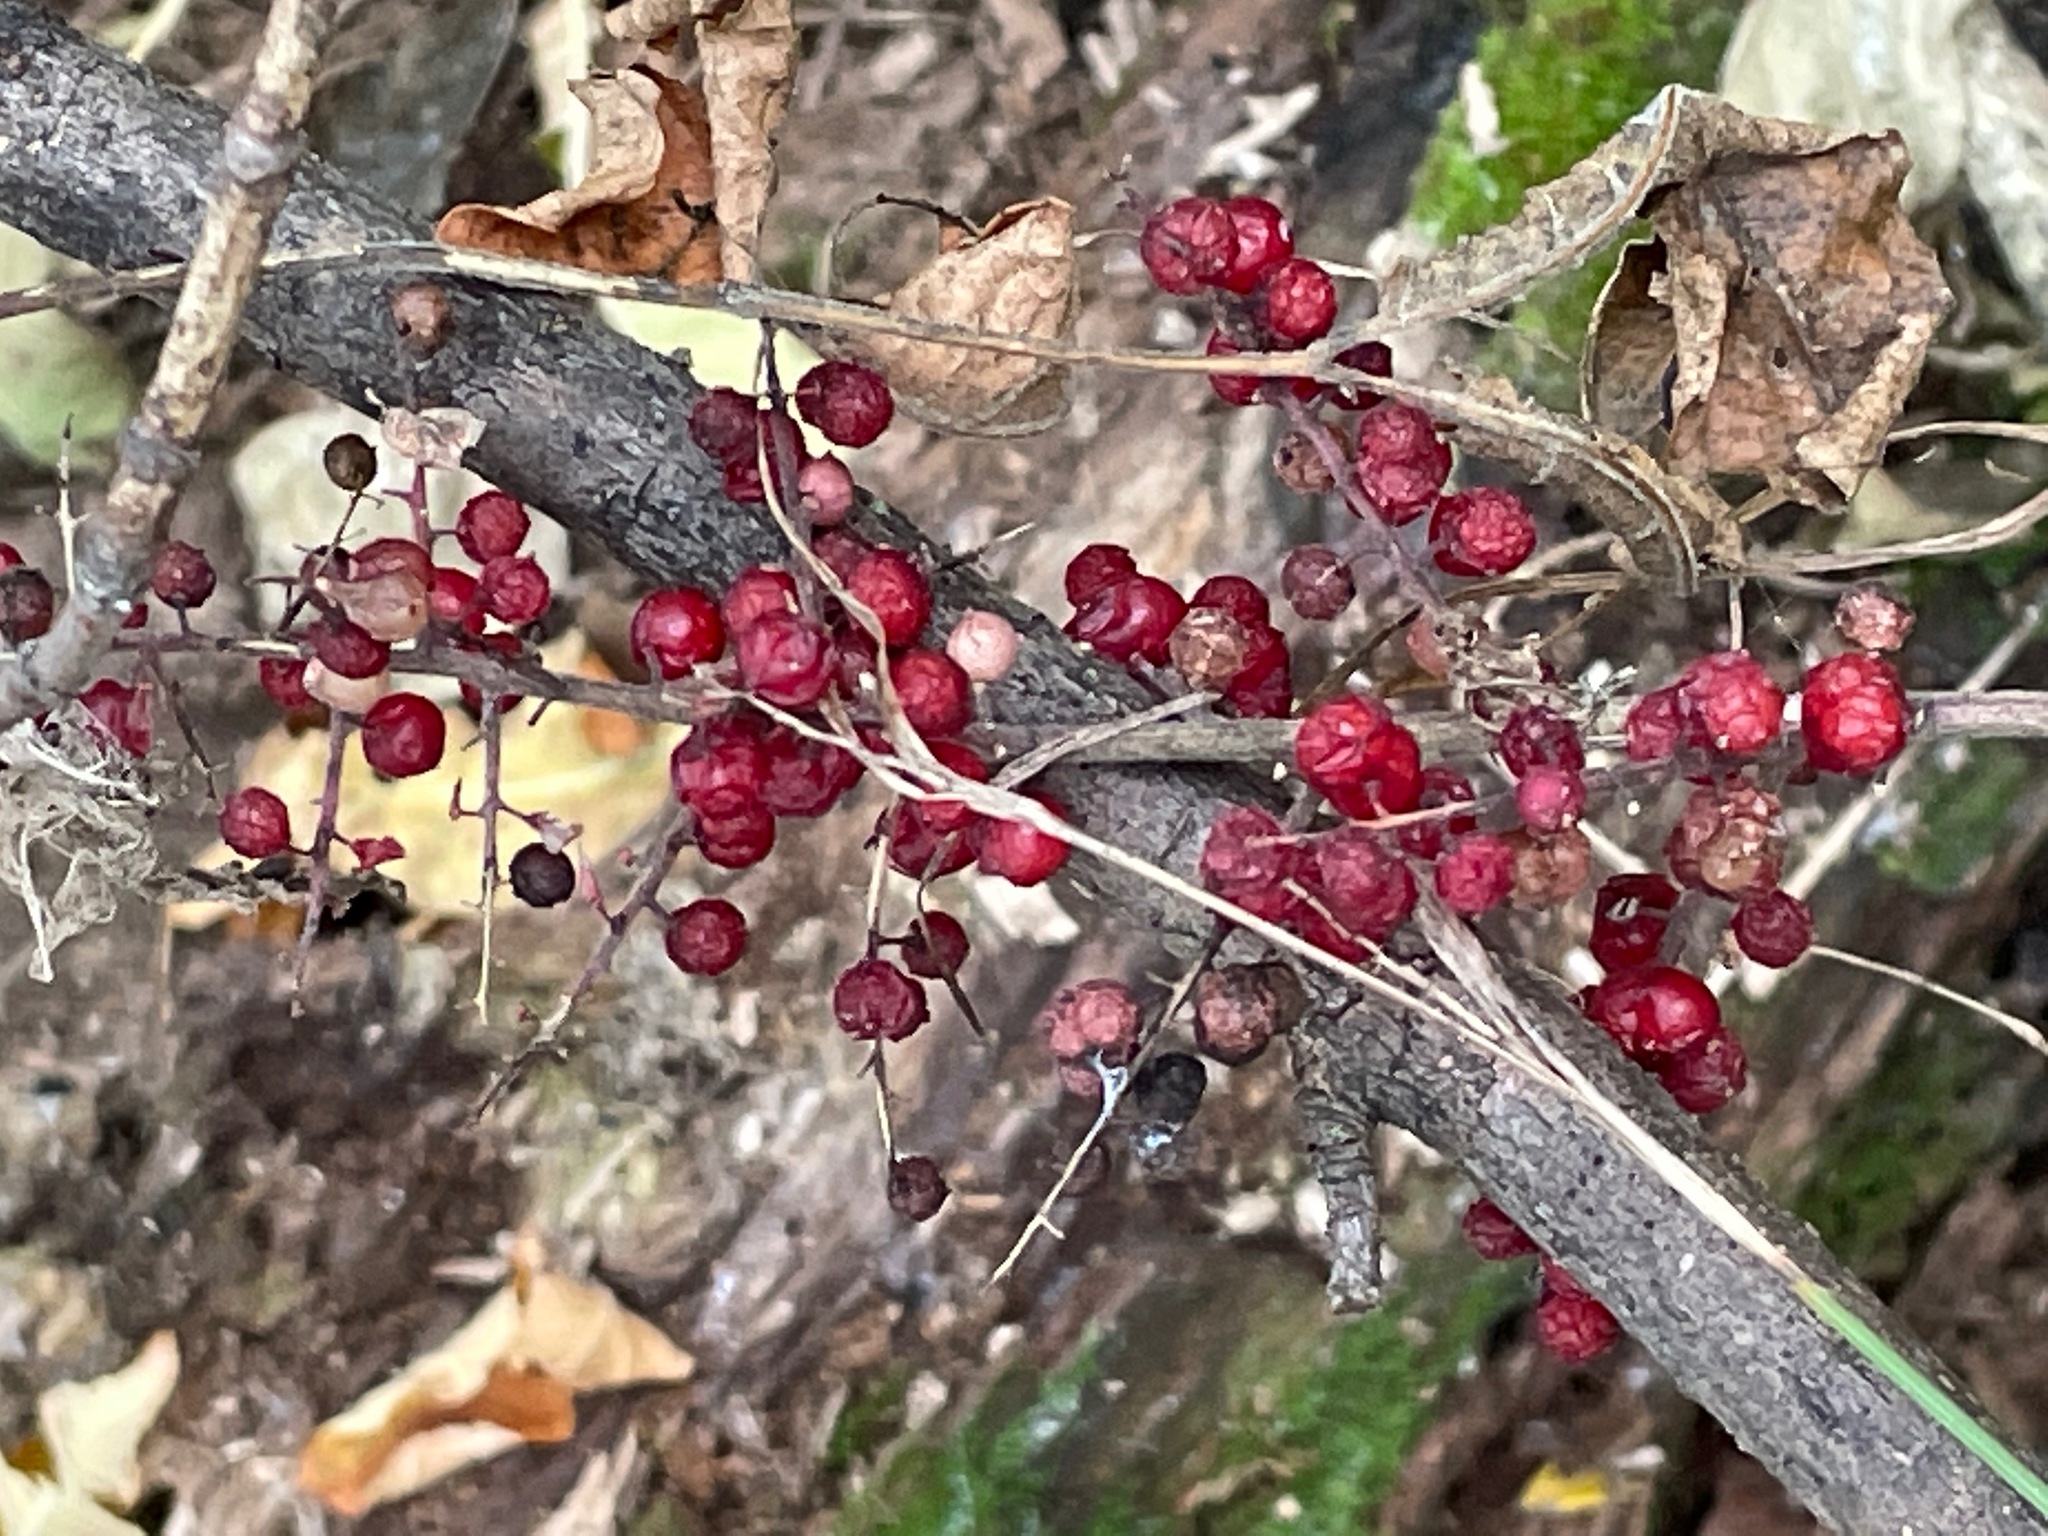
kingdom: Plantae
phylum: Tracheophyta
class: Liliopsida
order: Asparagales
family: Asparagaceae
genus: Maianthemum
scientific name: Maianthemum racemosum
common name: False spikenard
